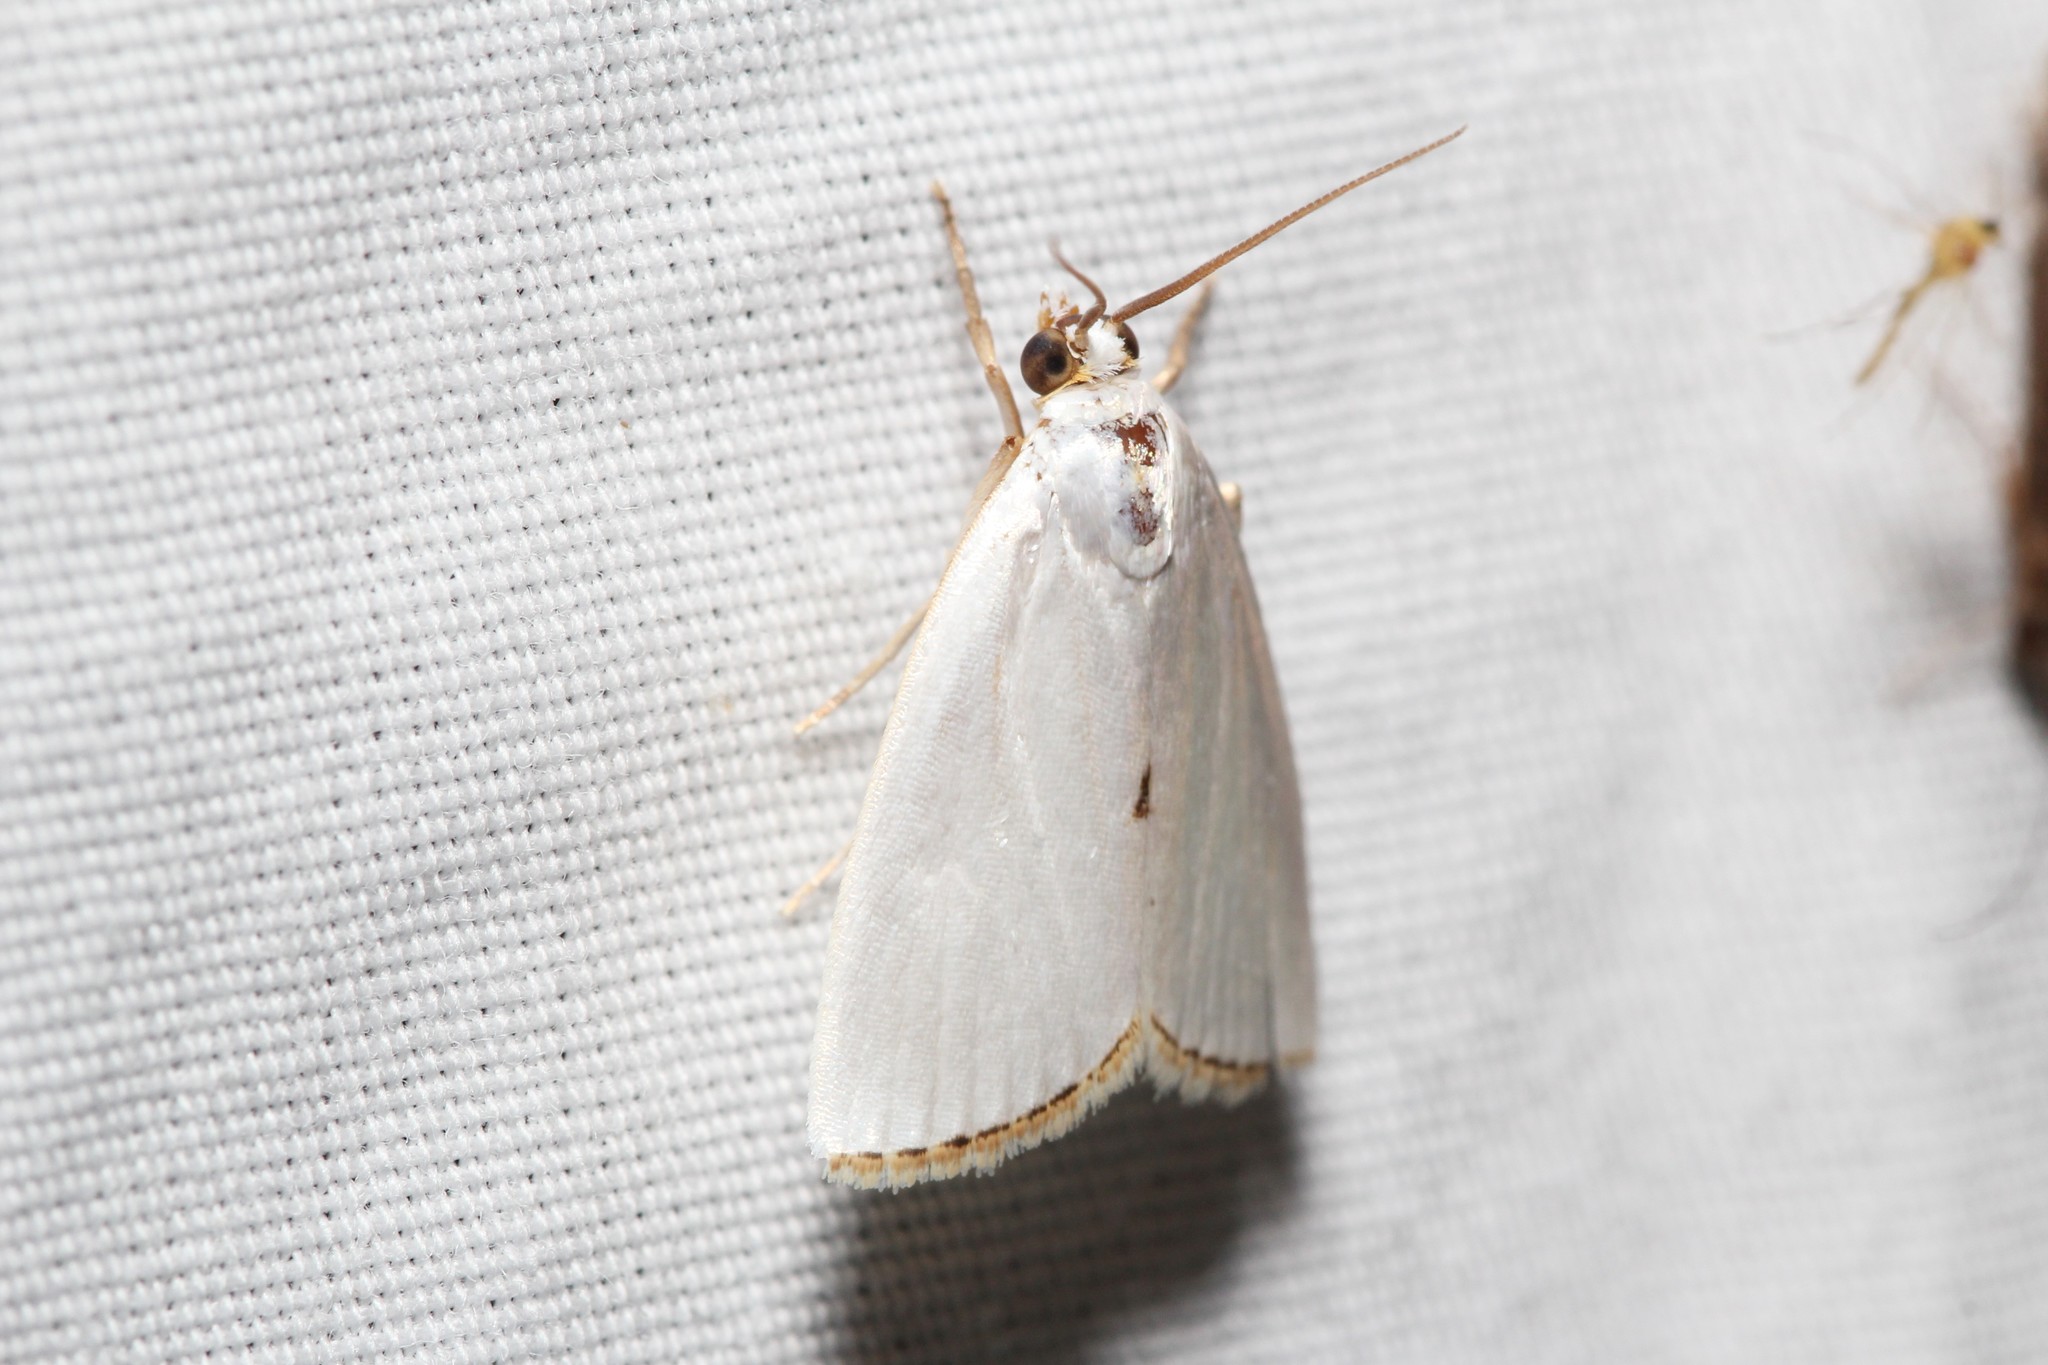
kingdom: Animalia
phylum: Arthropoda
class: Insecta
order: Lepidoptera
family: Crambidae
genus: Argyria
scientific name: Argyria nivalis
